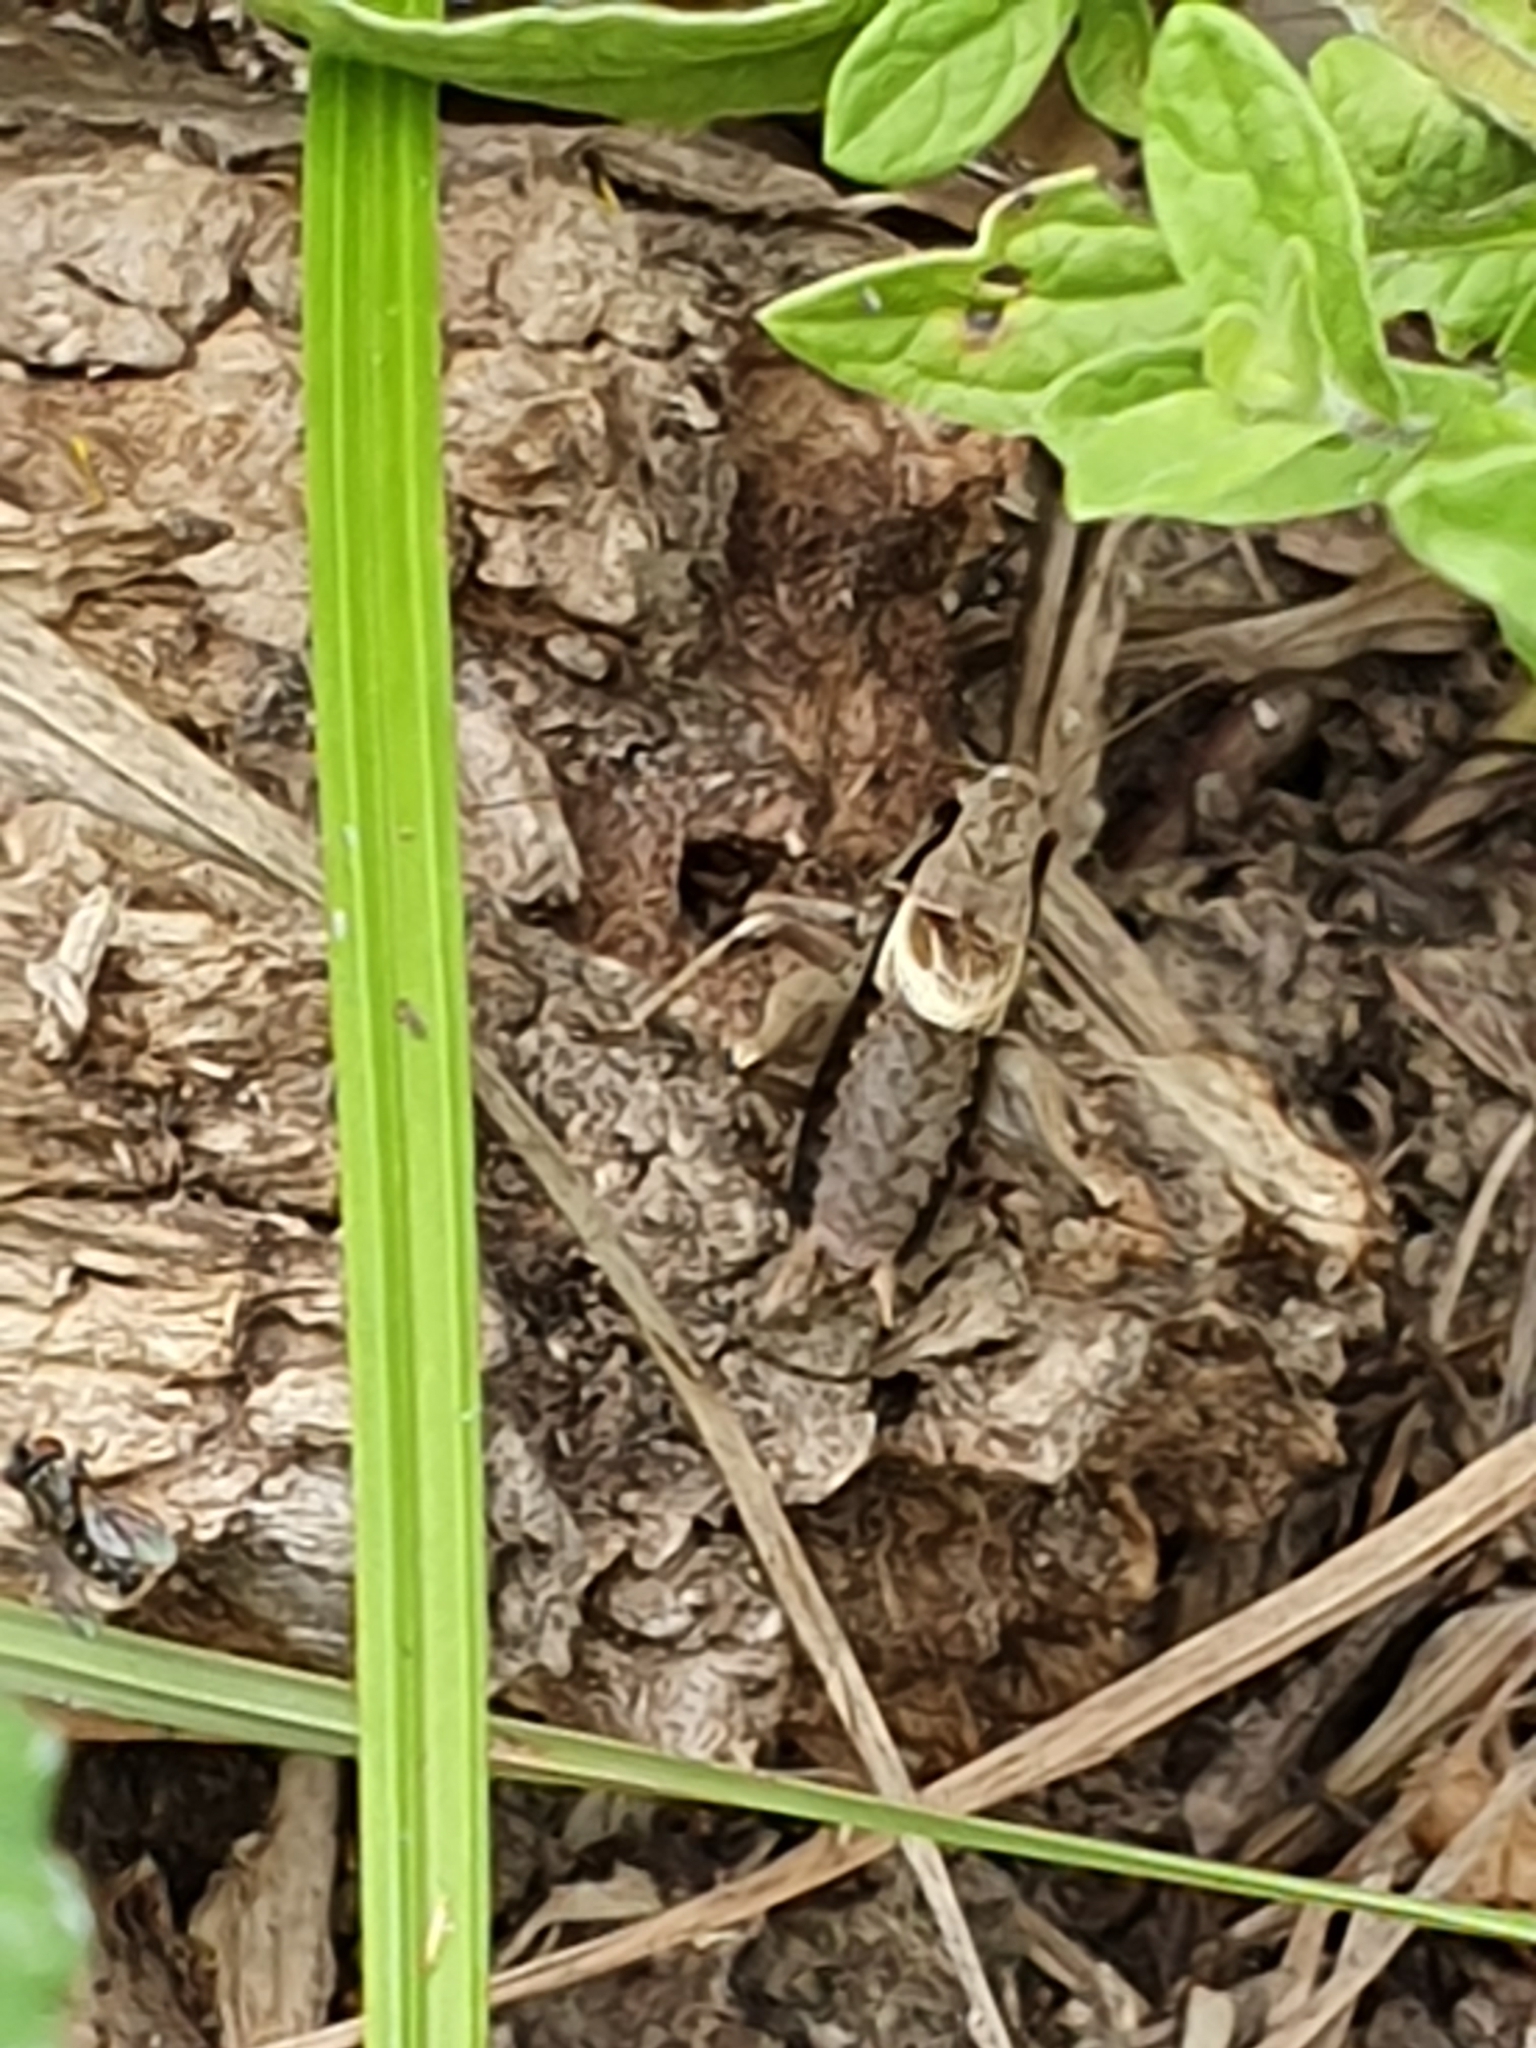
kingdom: Animalia
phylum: Arthropoda
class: Insecta
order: Orthoptera
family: Tettigoniidae
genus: Pholidoptera
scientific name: Pholidoptera griseoaptera
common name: Dark bush-cricket
